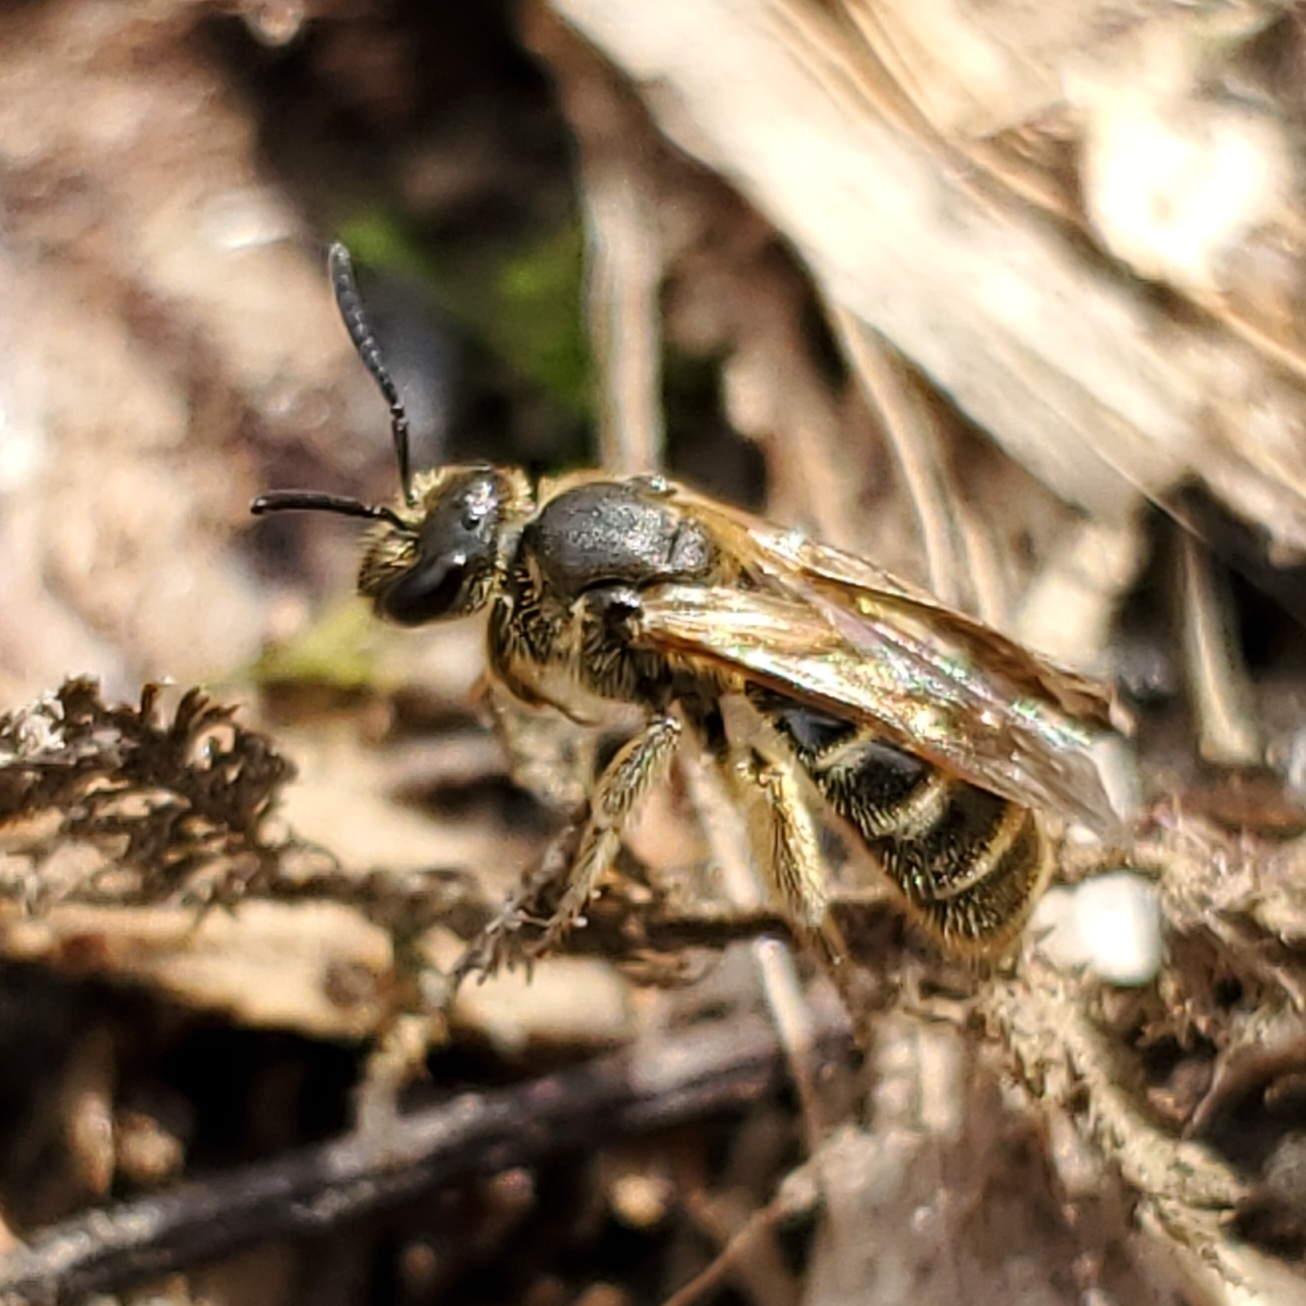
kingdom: Animalia
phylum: Arthropoda
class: Insecta
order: Hymenoptera
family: Halictidae
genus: Lasioglossum
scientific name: Lasioglossum quebecense
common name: Quebec sweat bee
